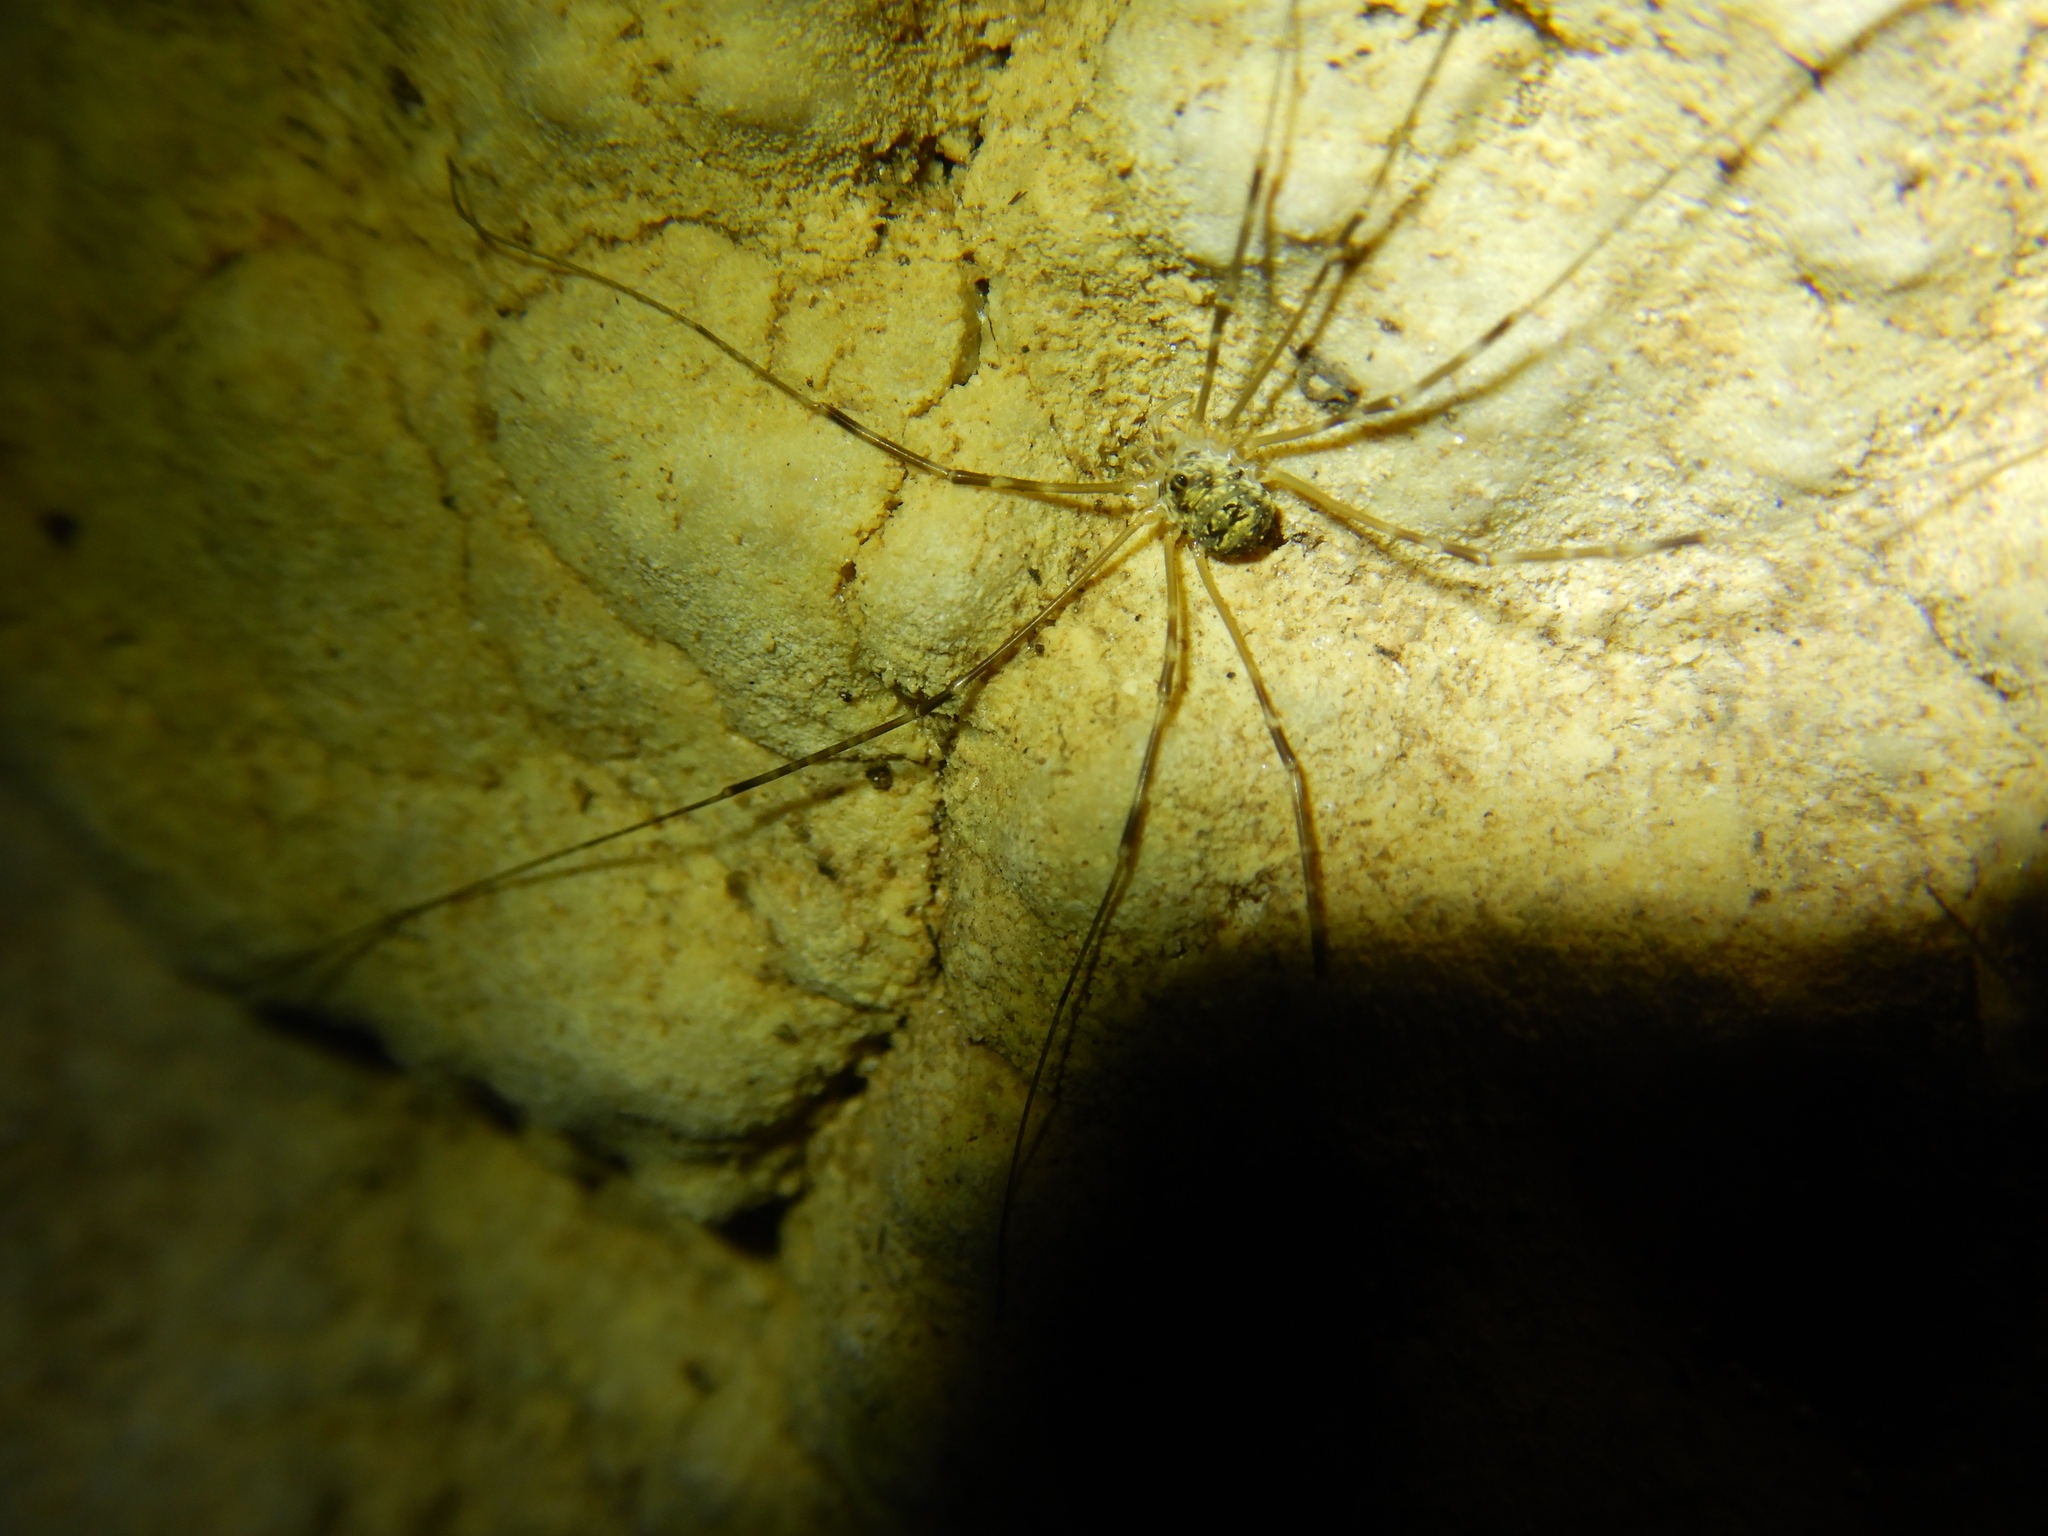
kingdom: Animalia
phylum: Arthropoda
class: Arachnida
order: Opiliones
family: Phalangiidae
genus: Amilenus
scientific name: Amilenus aurantiacus
